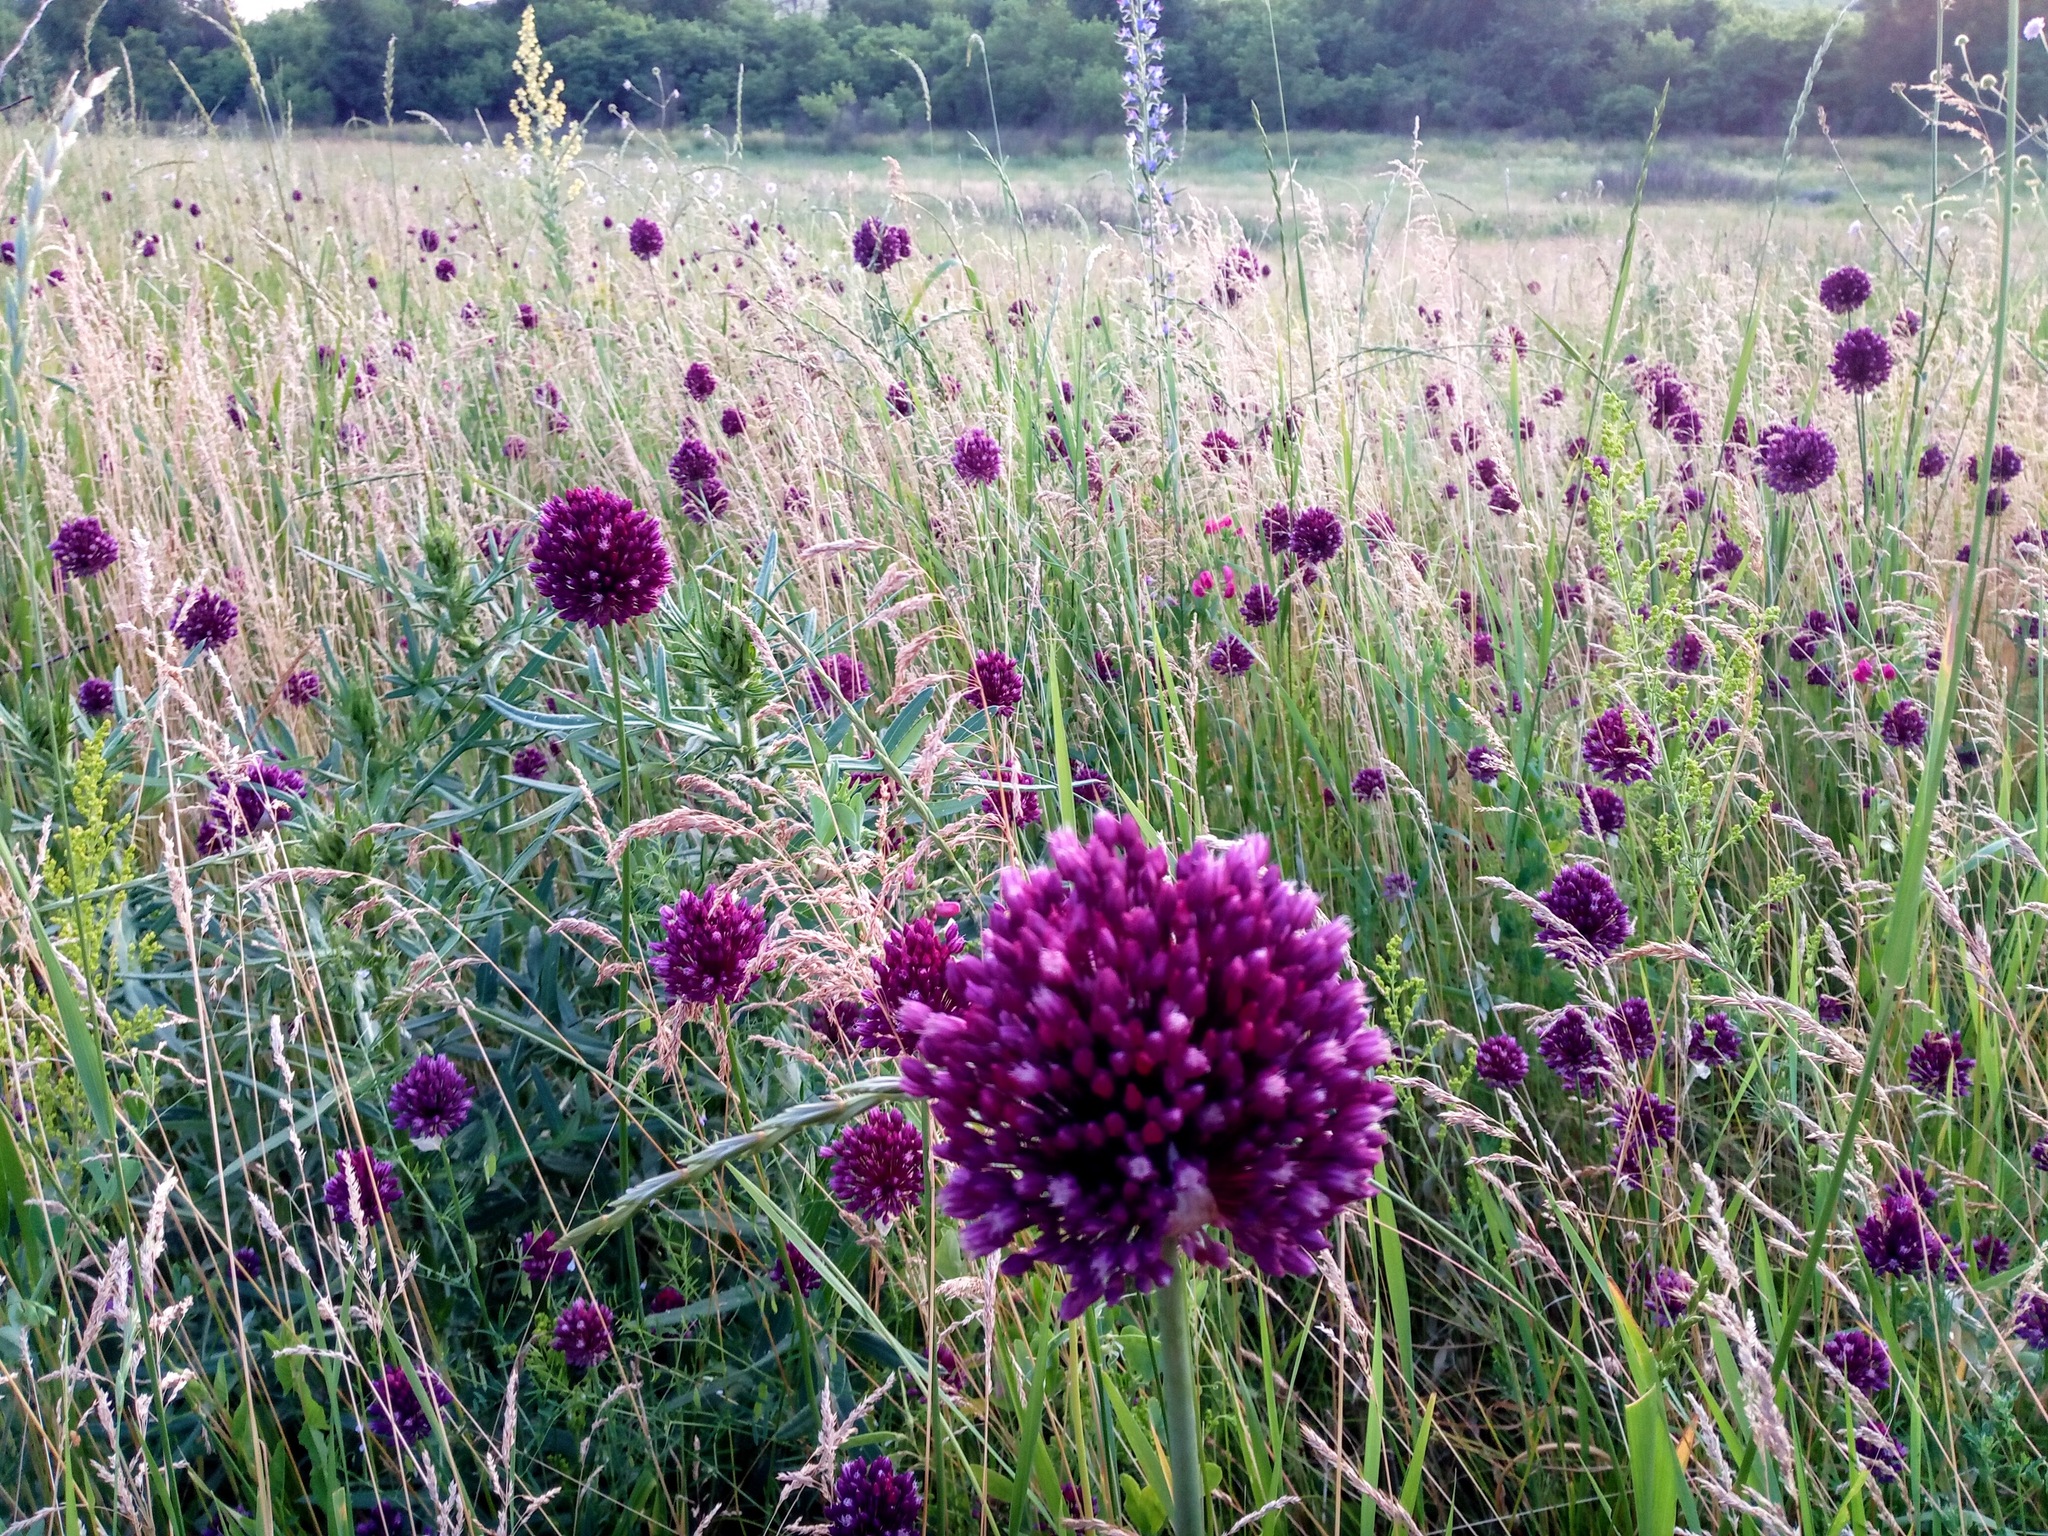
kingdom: Plantae
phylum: Tracheophyta
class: Liliopsida
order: Asparagales
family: Amaryllidaceae
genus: Allium
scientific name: Allium rotundum
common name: Sand leek
